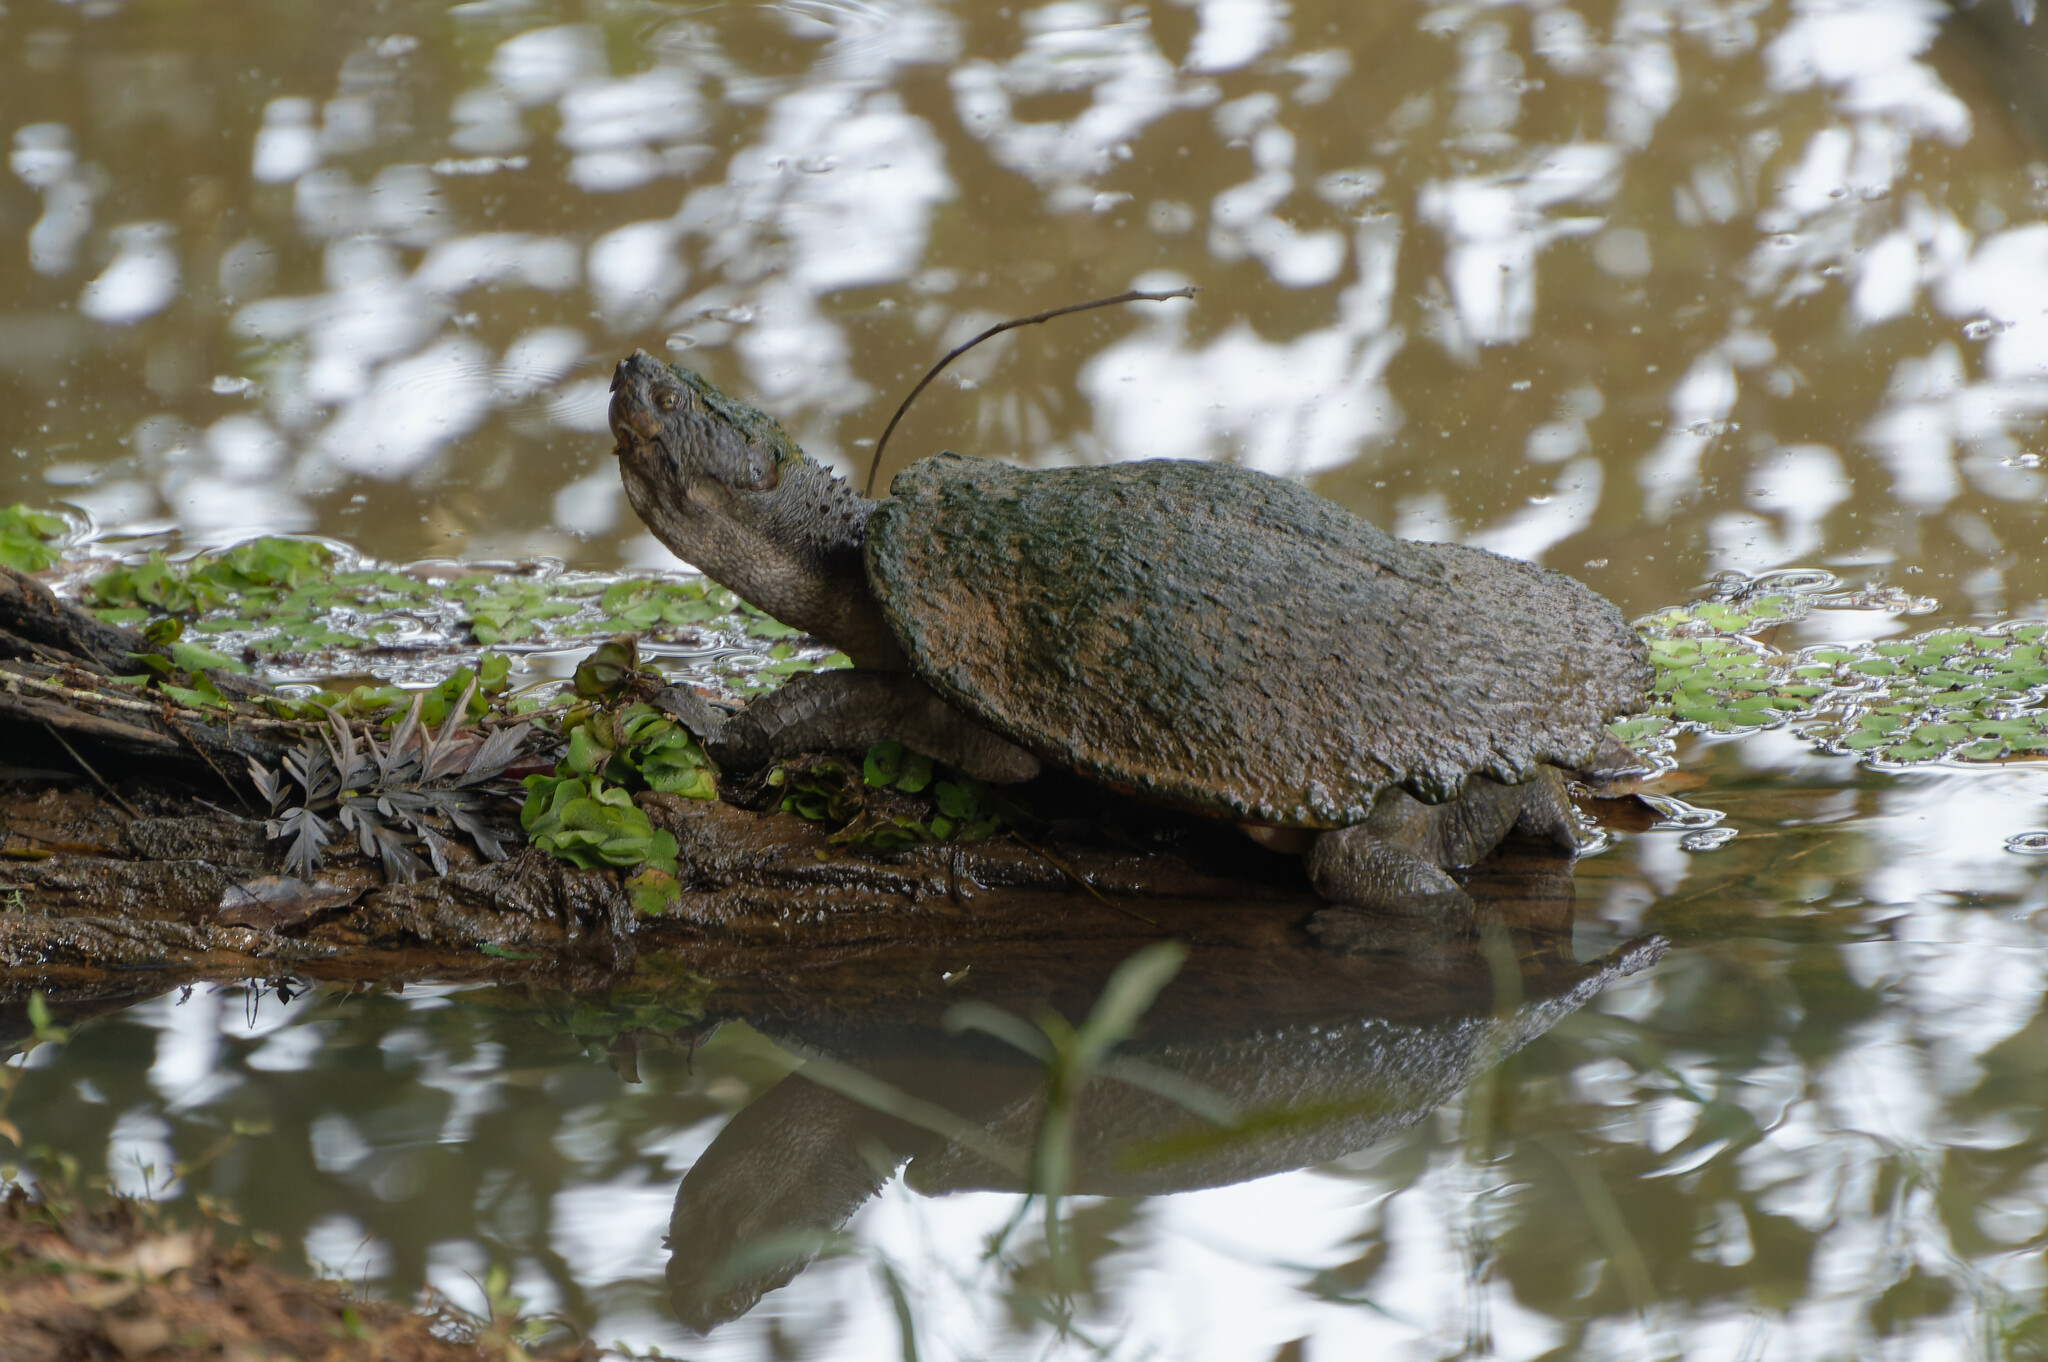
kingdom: Animalia
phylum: Chordata
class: Testudines
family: Chelidae
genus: Myuchelys
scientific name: Myuchelys latisternum
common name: Serrated snapping turtle
